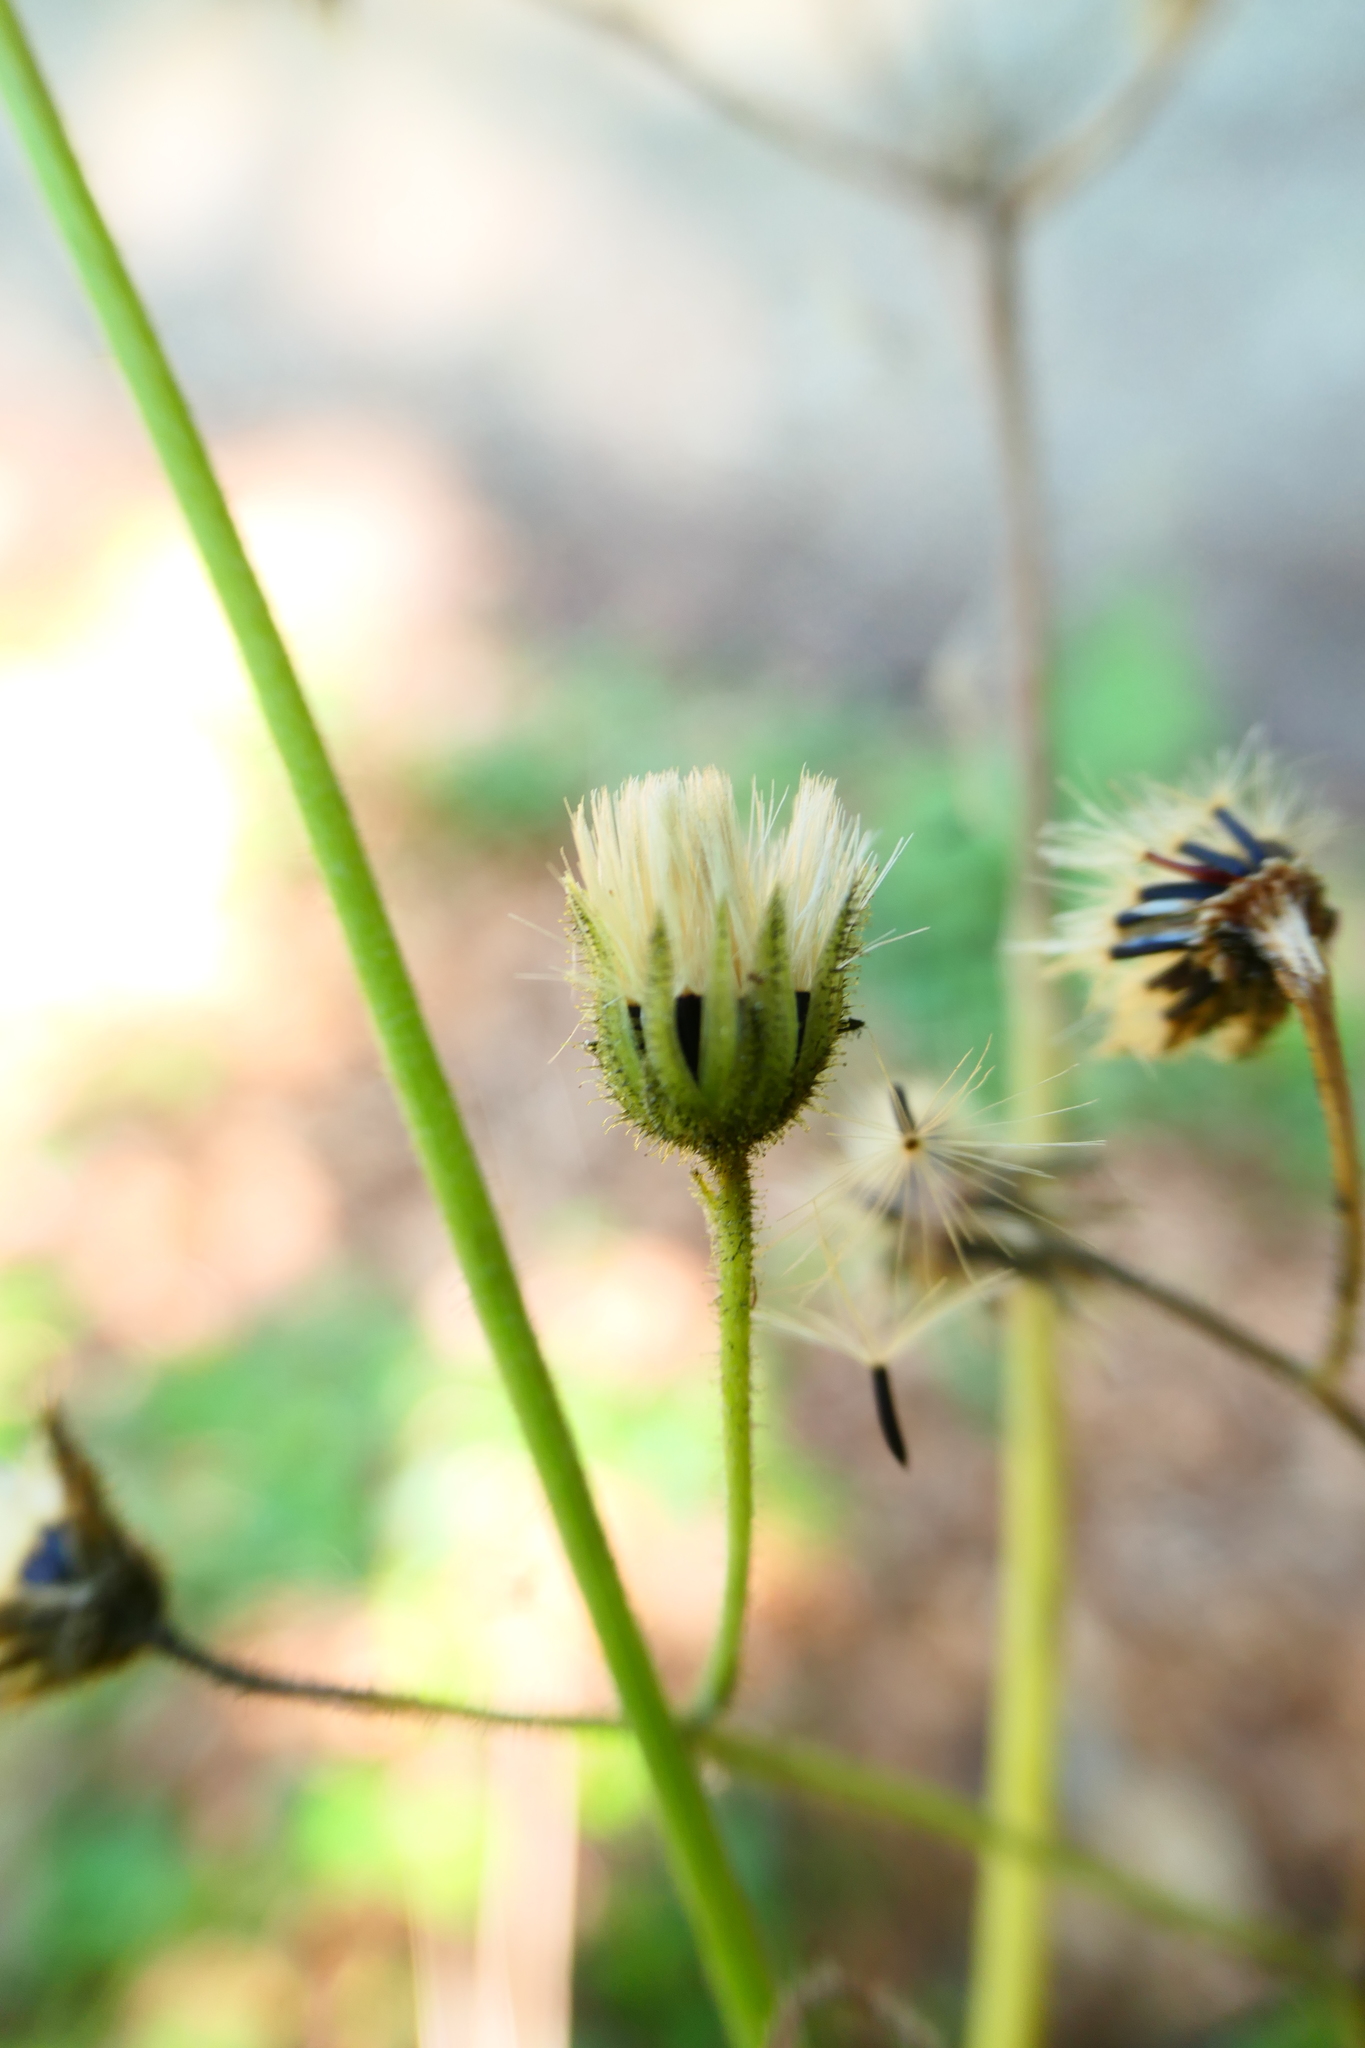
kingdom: Plantae
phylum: Tracheophyta
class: Magnoliopsida
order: Asterales
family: Asteraceae
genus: Hieracium
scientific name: Hieracium murorum
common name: Wall hawkweed
